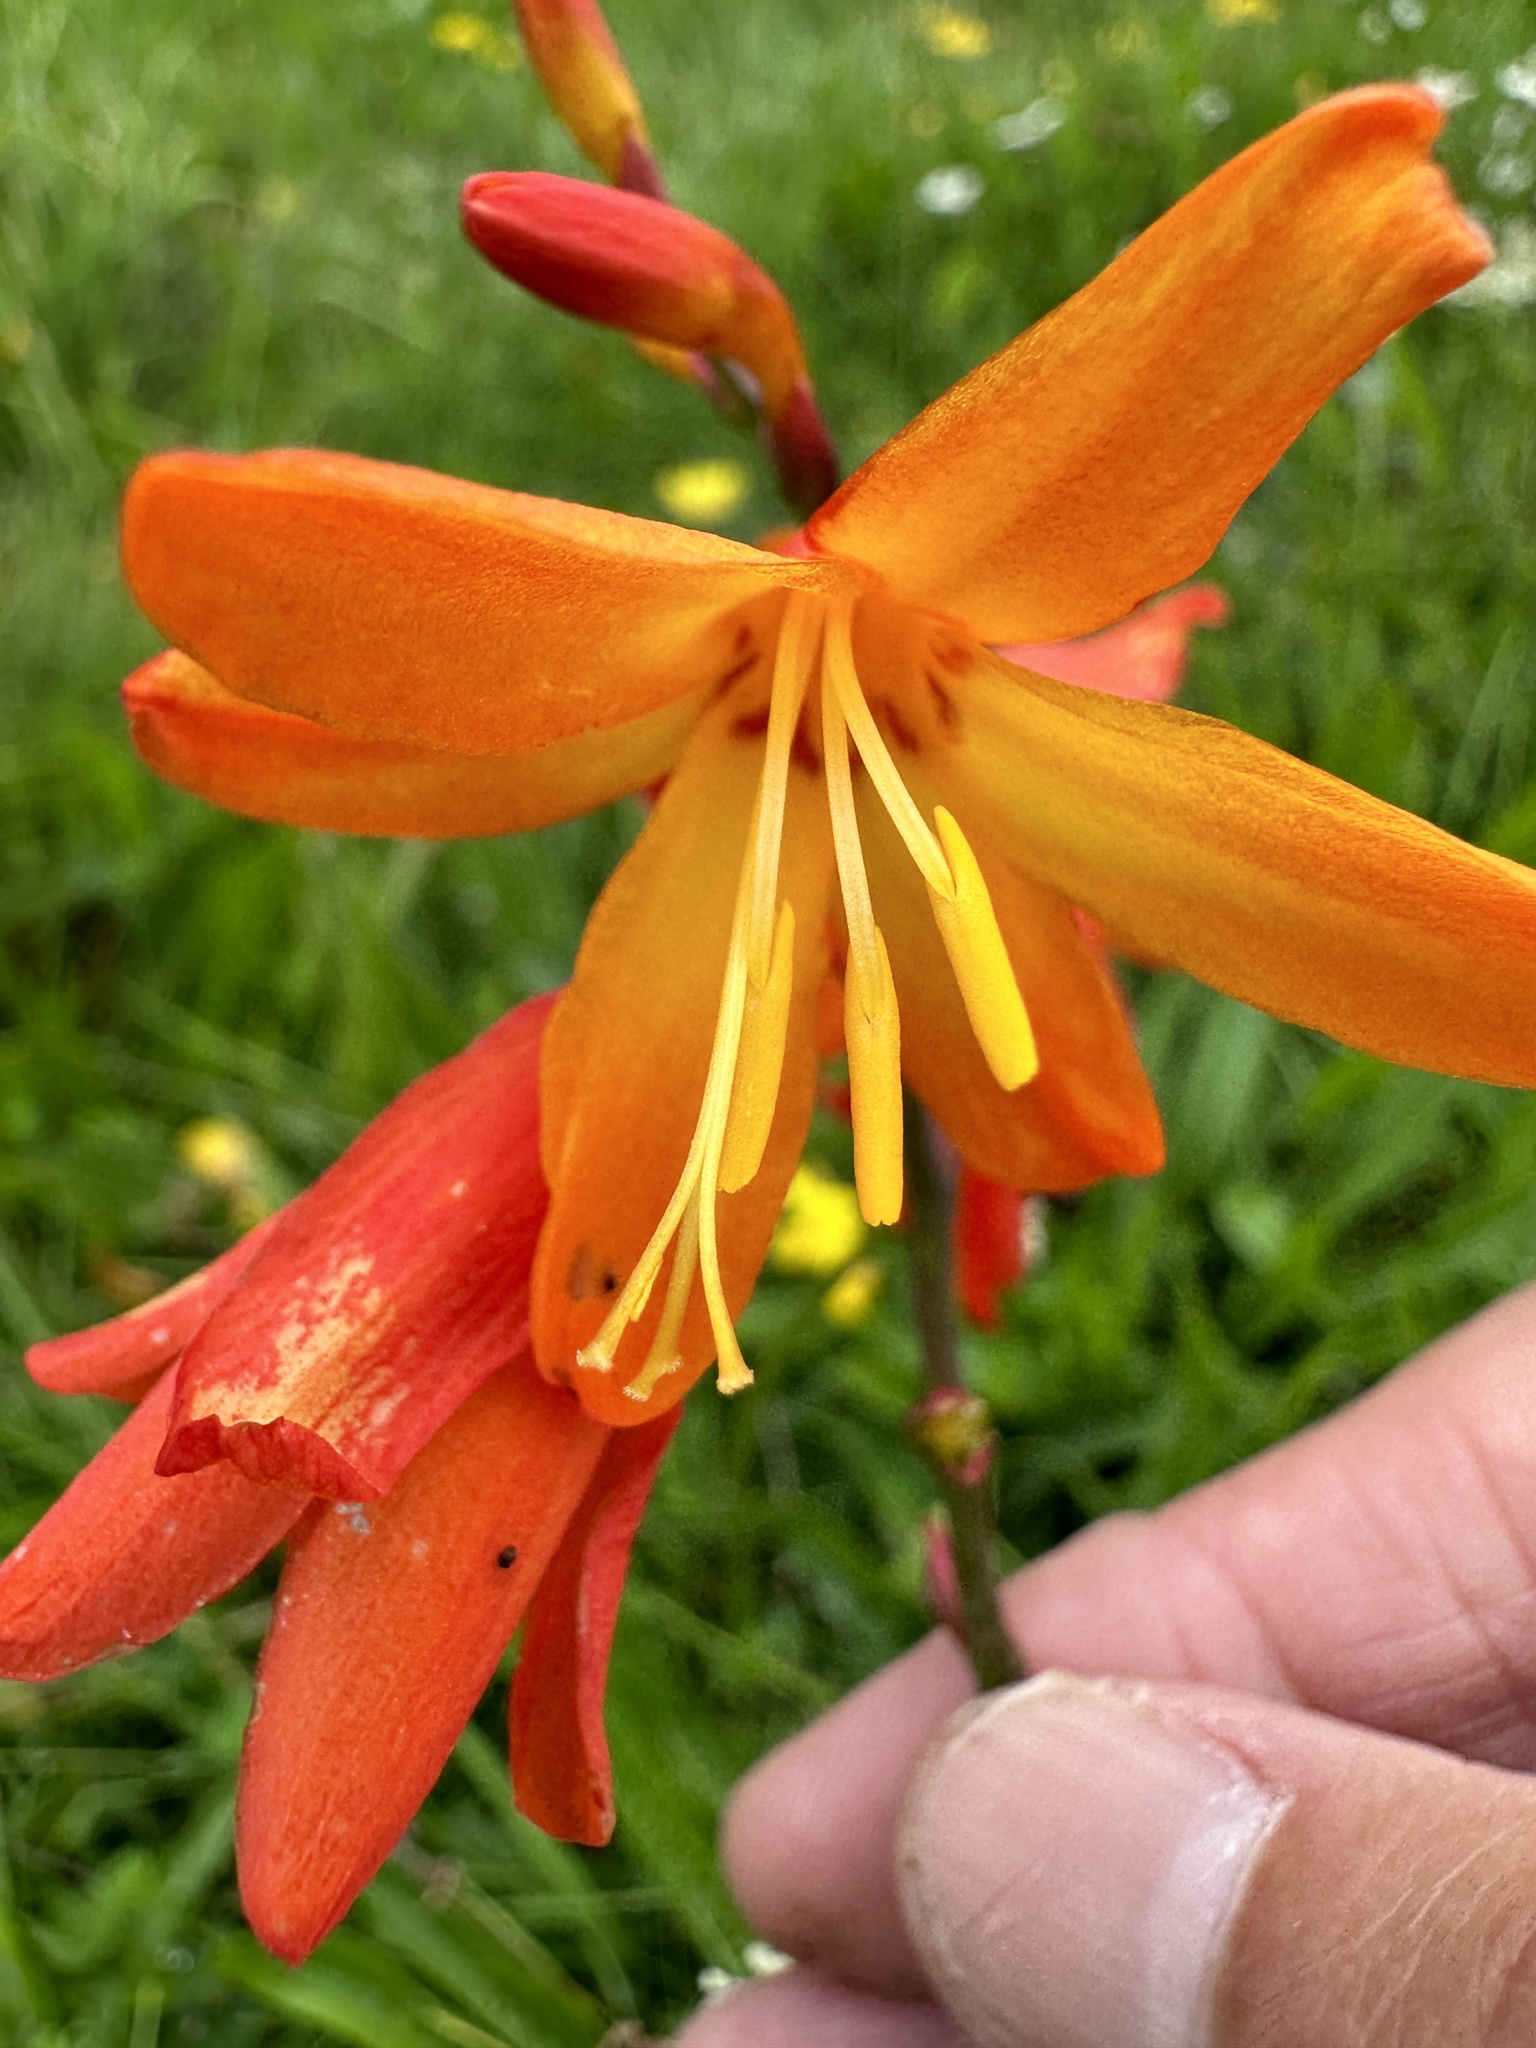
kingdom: Plantae
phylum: Tracheophyta
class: Liliopsida
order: Asparagales
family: Iridaceae
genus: Crocosmia
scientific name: Crocosmia crocosmiiflora
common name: Montbretia
